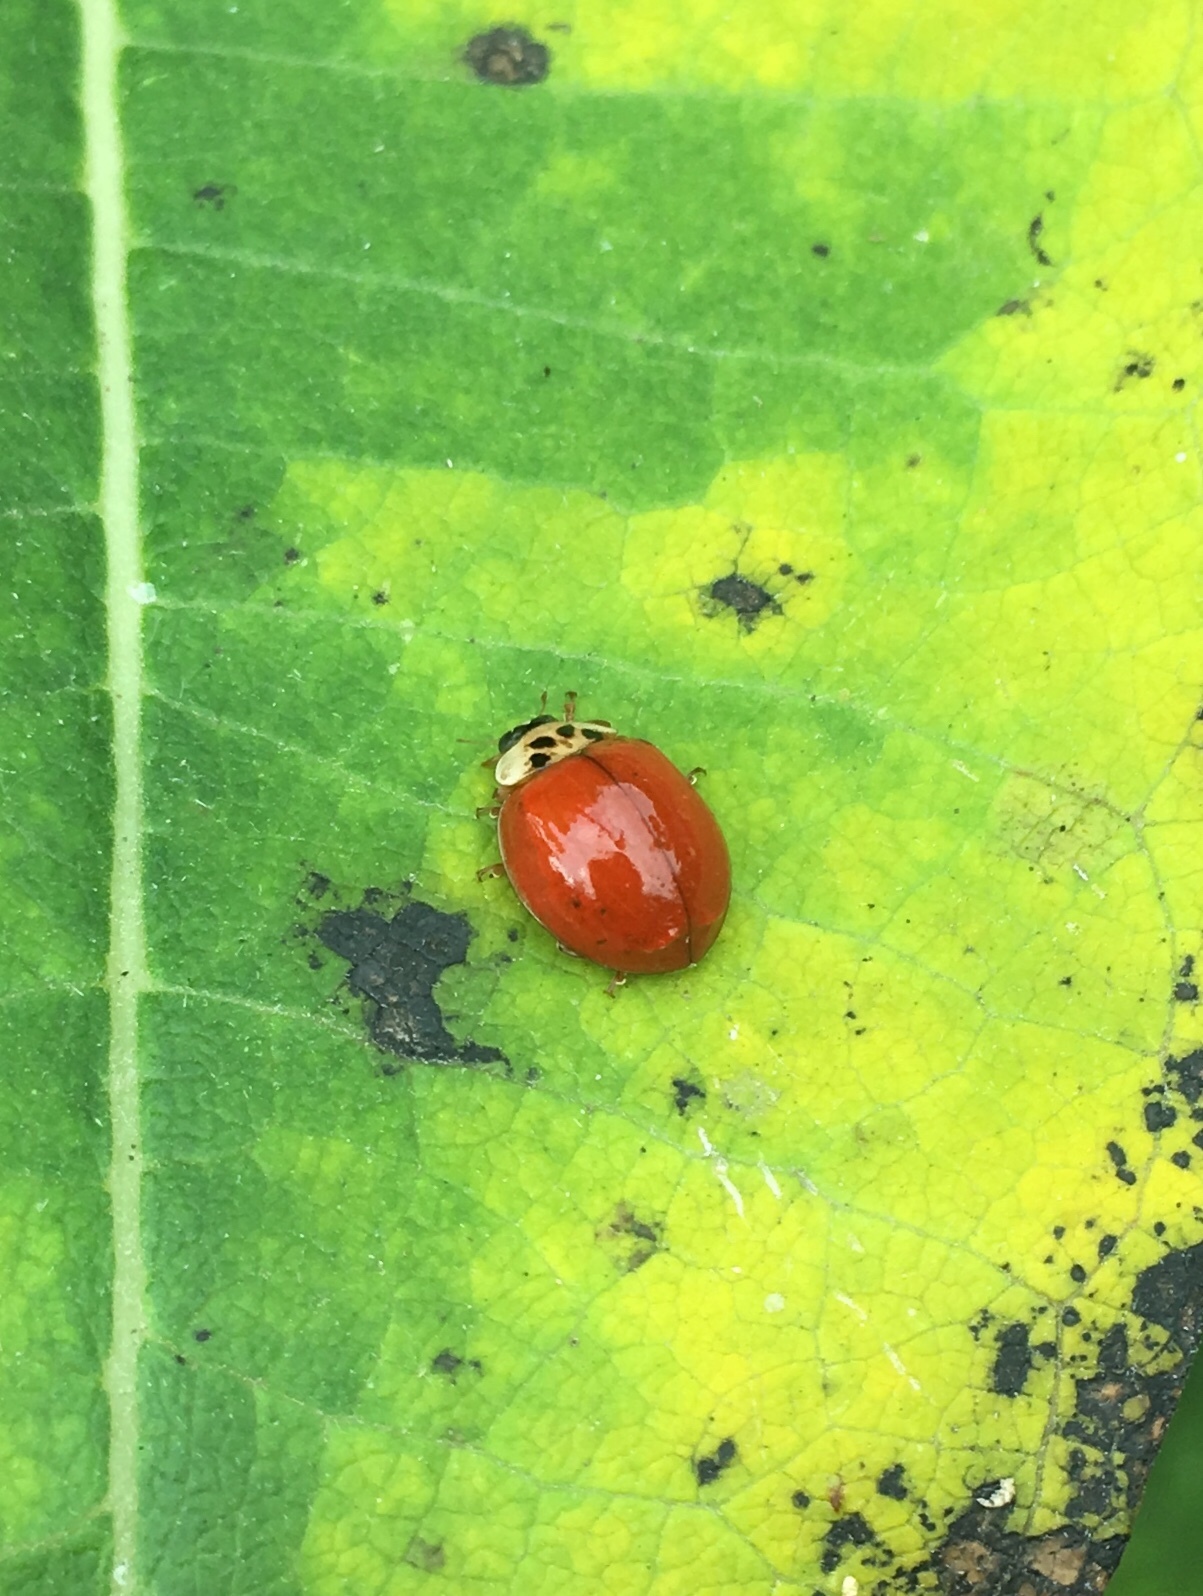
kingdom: Animalia
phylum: Arthropoda
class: Insecta
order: Coleoptera
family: Coccinellidae
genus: Harmonia
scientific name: Harmonia axyridis
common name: Harlequin ladybird
